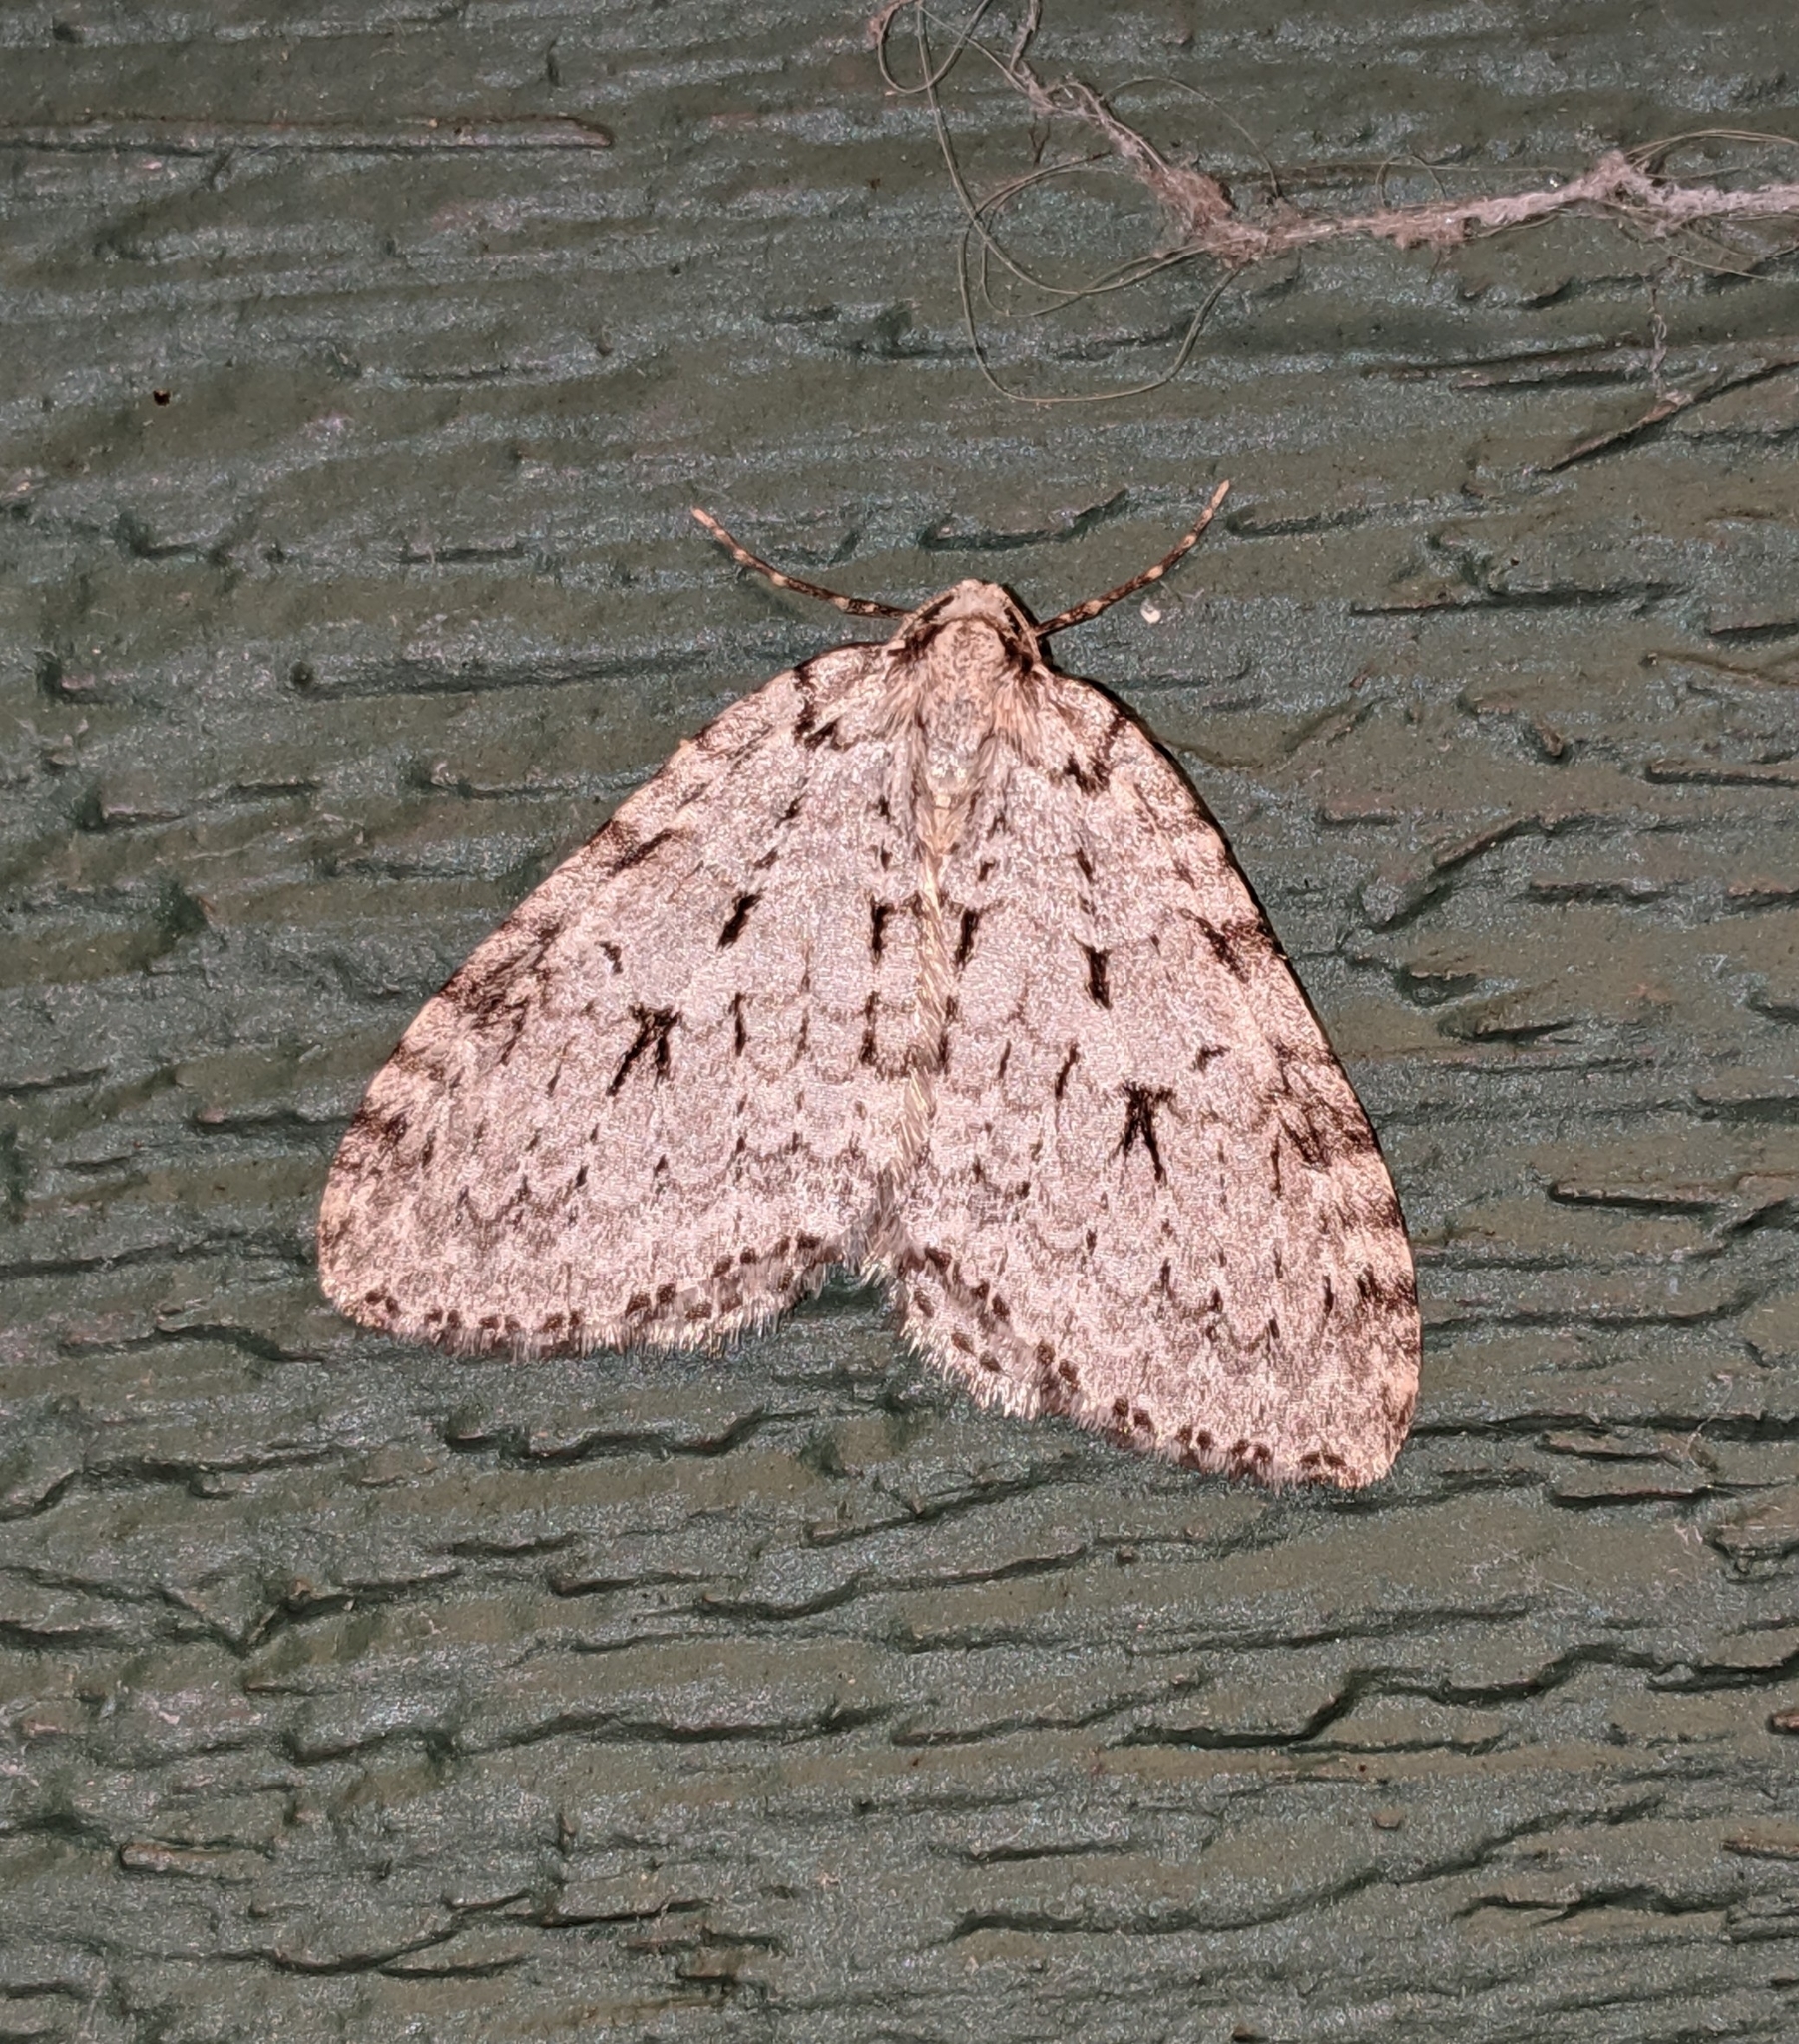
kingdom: Animalia
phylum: Arthropoda
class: Insecta
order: Lepidoptera
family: Geometridae
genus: Epirrita
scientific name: Epirrita autumnata
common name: Autumnal moth
